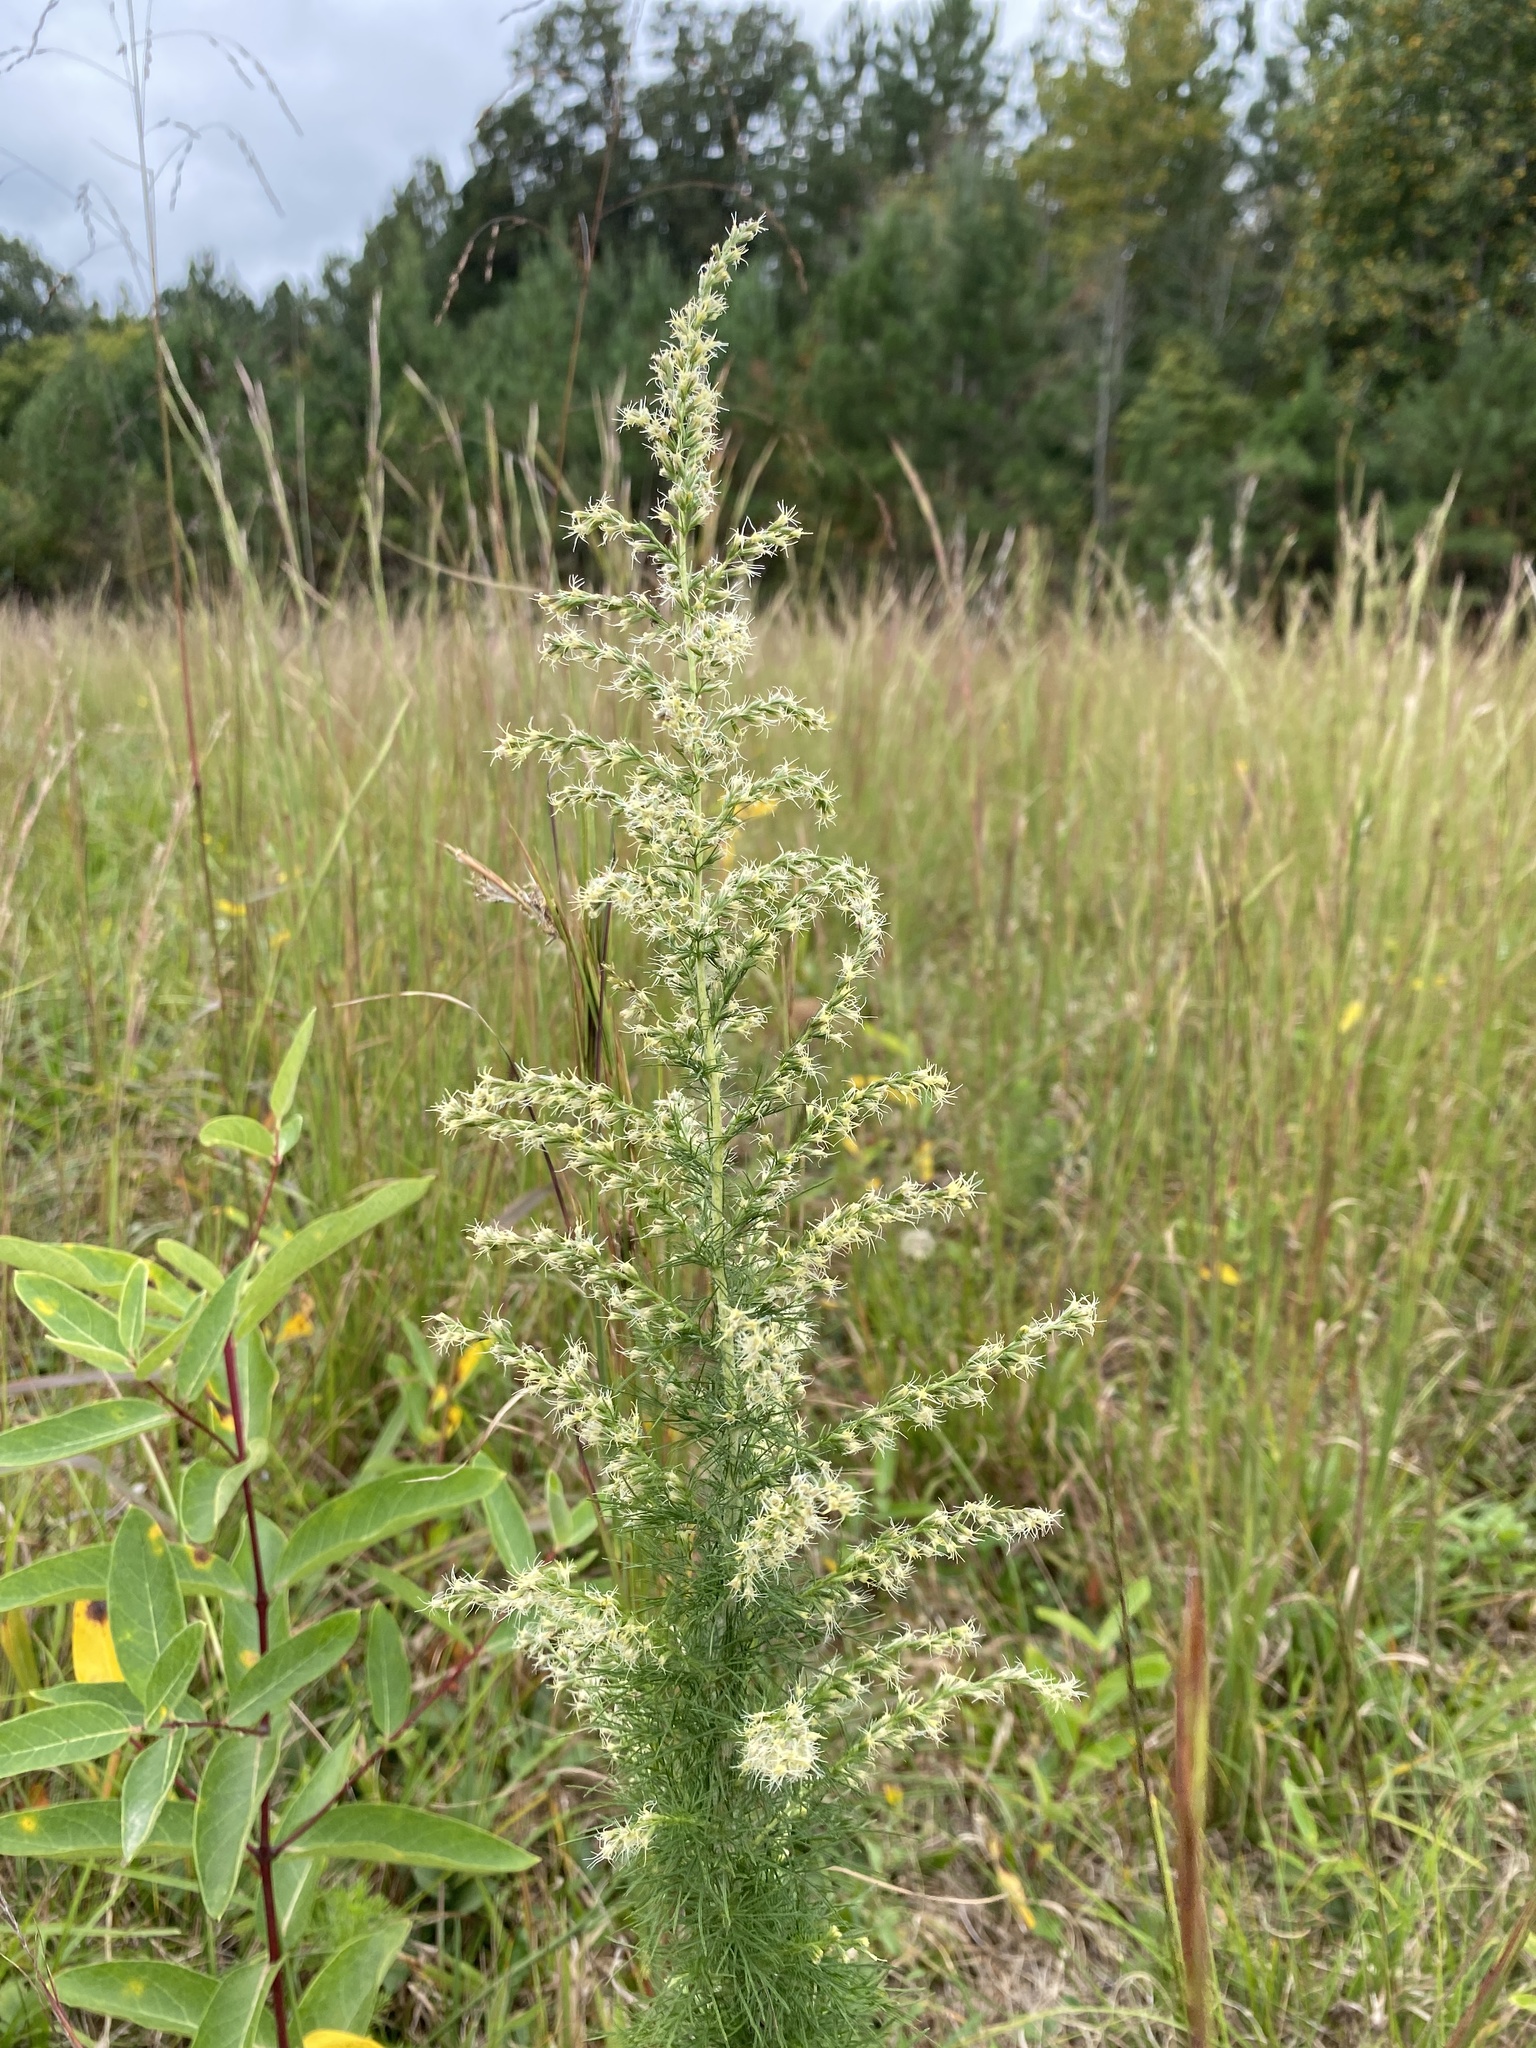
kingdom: Plantae
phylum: Tracheophyta
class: Magnoliopsida
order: Asterales
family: Asteraceae
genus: Eupatorium
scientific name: Eupatorium capillifolium
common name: Dog-fennel
